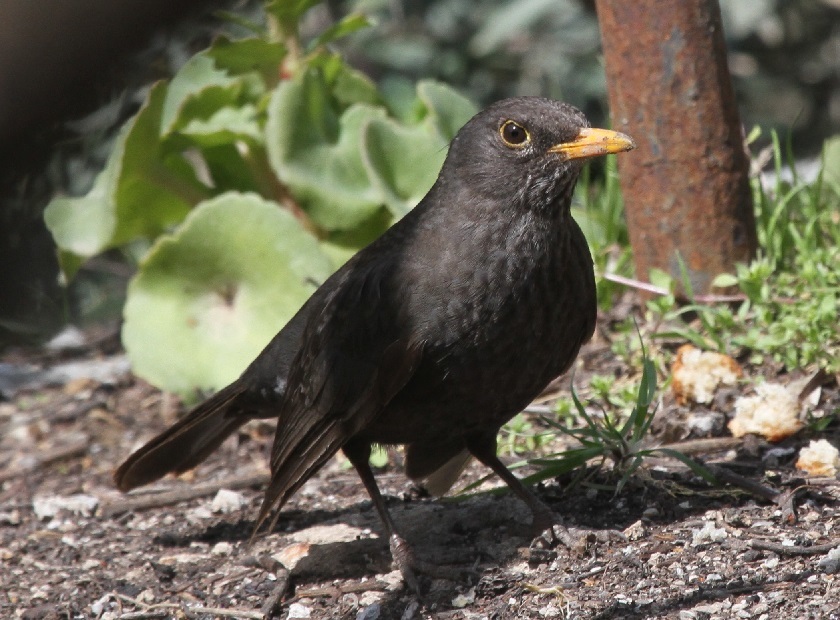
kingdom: Animalia
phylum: Chordata
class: Aves
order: Passeriformes
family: Turdidae
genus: Turdus
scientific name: Turdus merula
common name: Common blackbird
